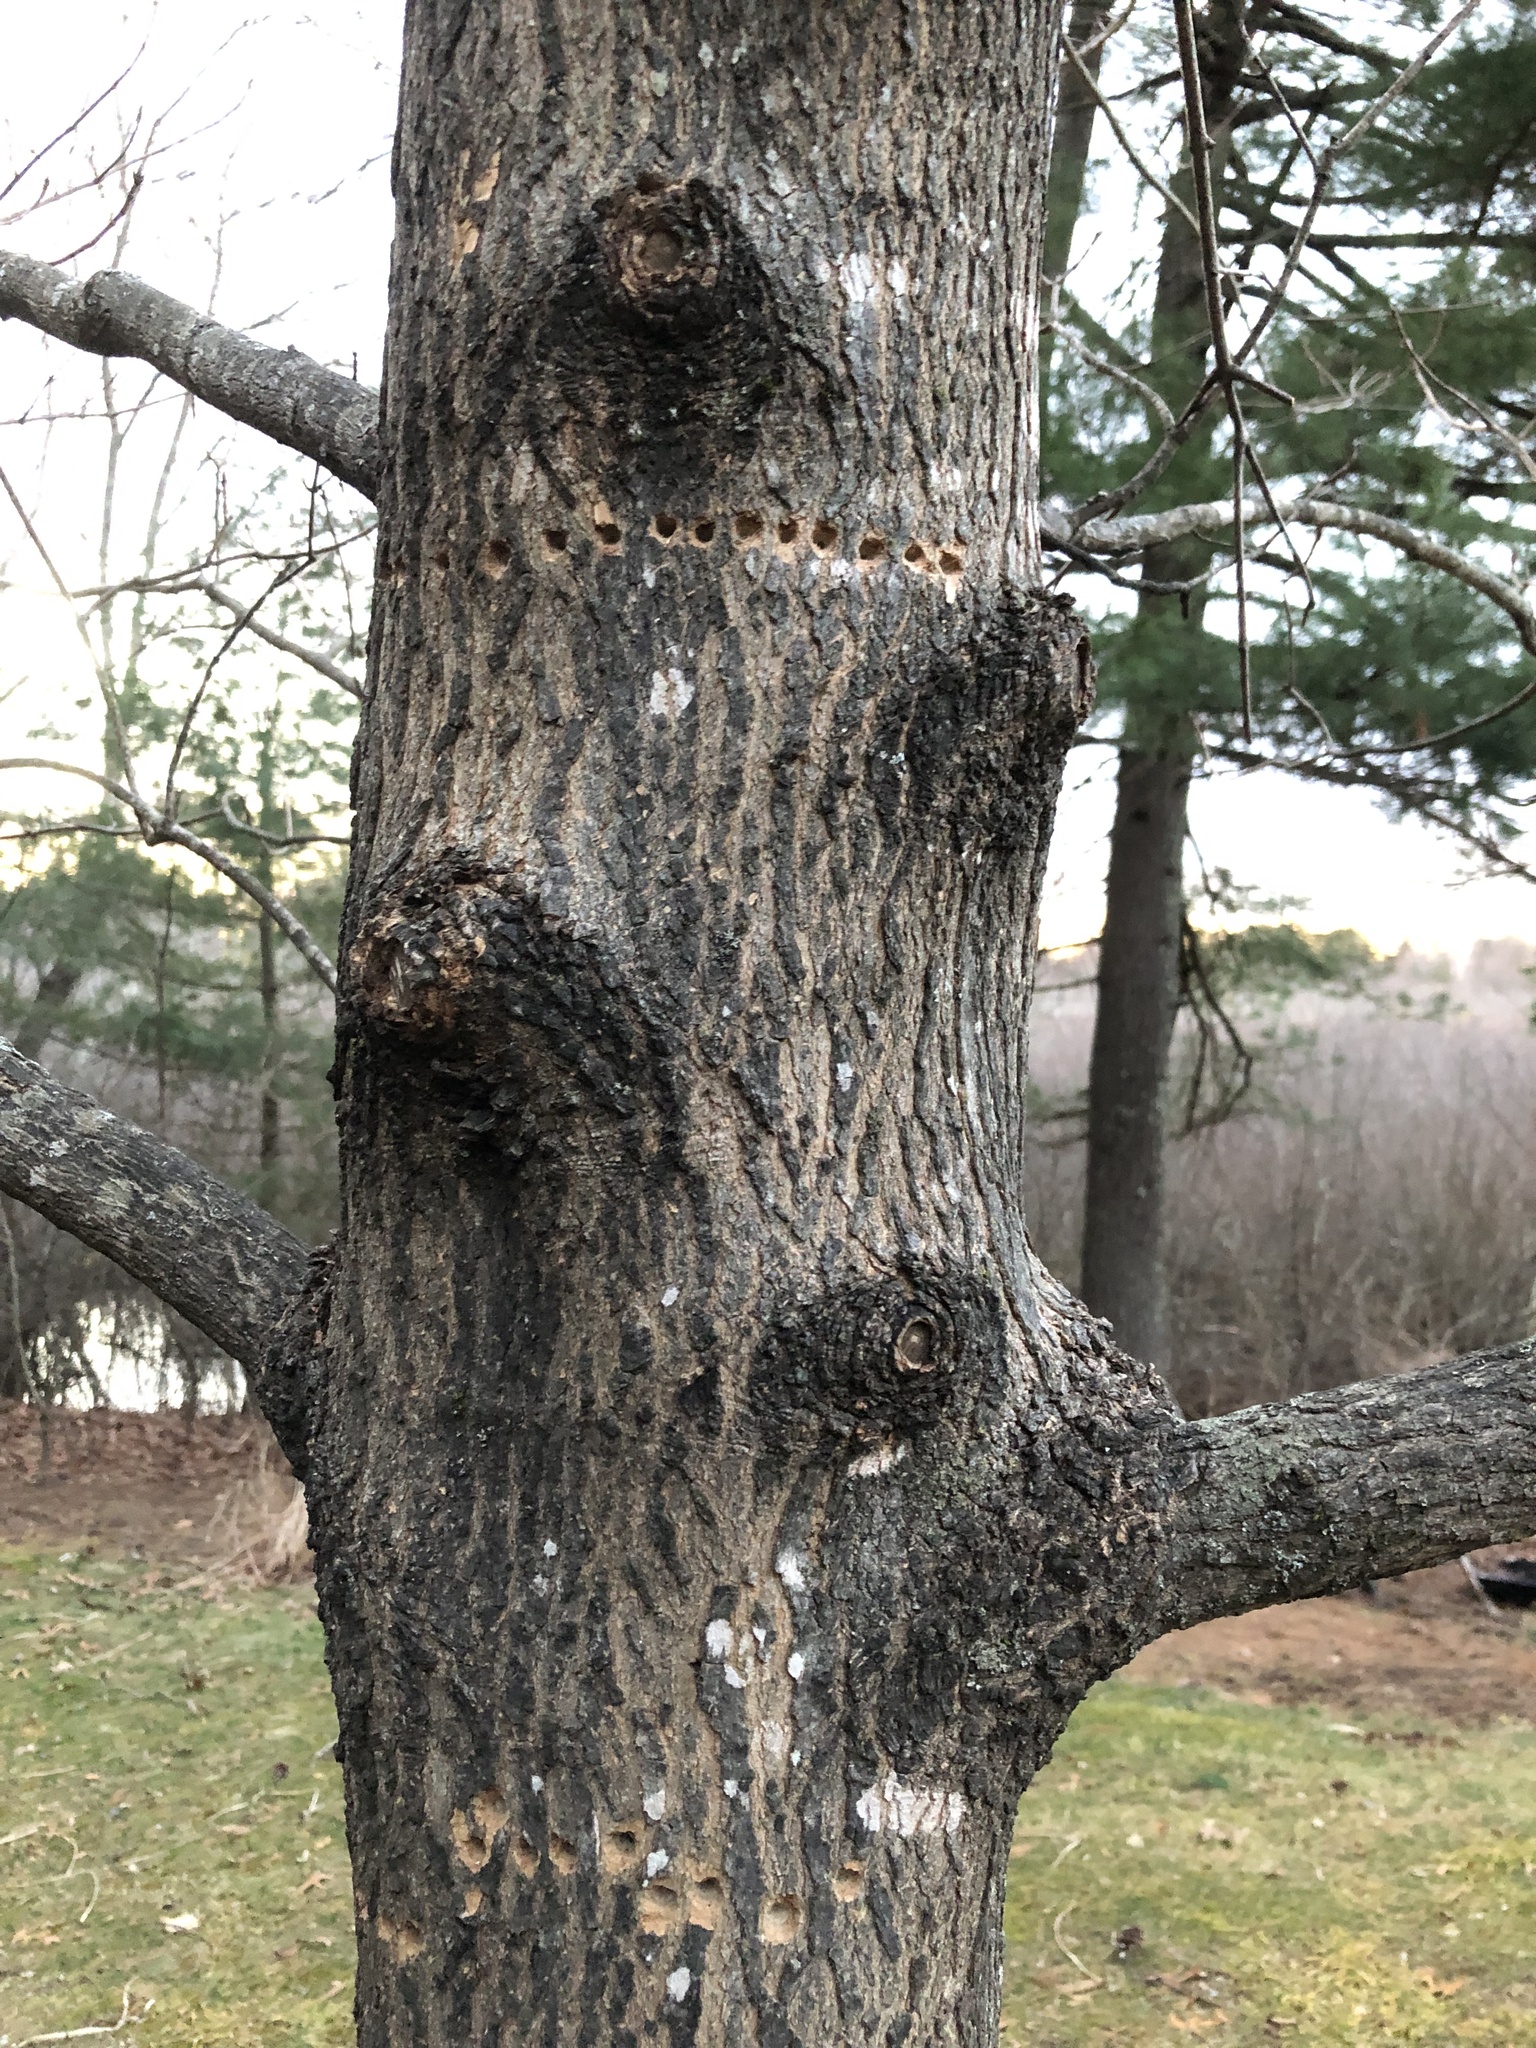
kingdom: Animalia
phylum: Chordata
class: Aves
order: Piciformes
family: Picidae
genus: Sphyrapicus
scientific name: Sphyrapicus varius
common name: Yellow-bellied sapsucker
